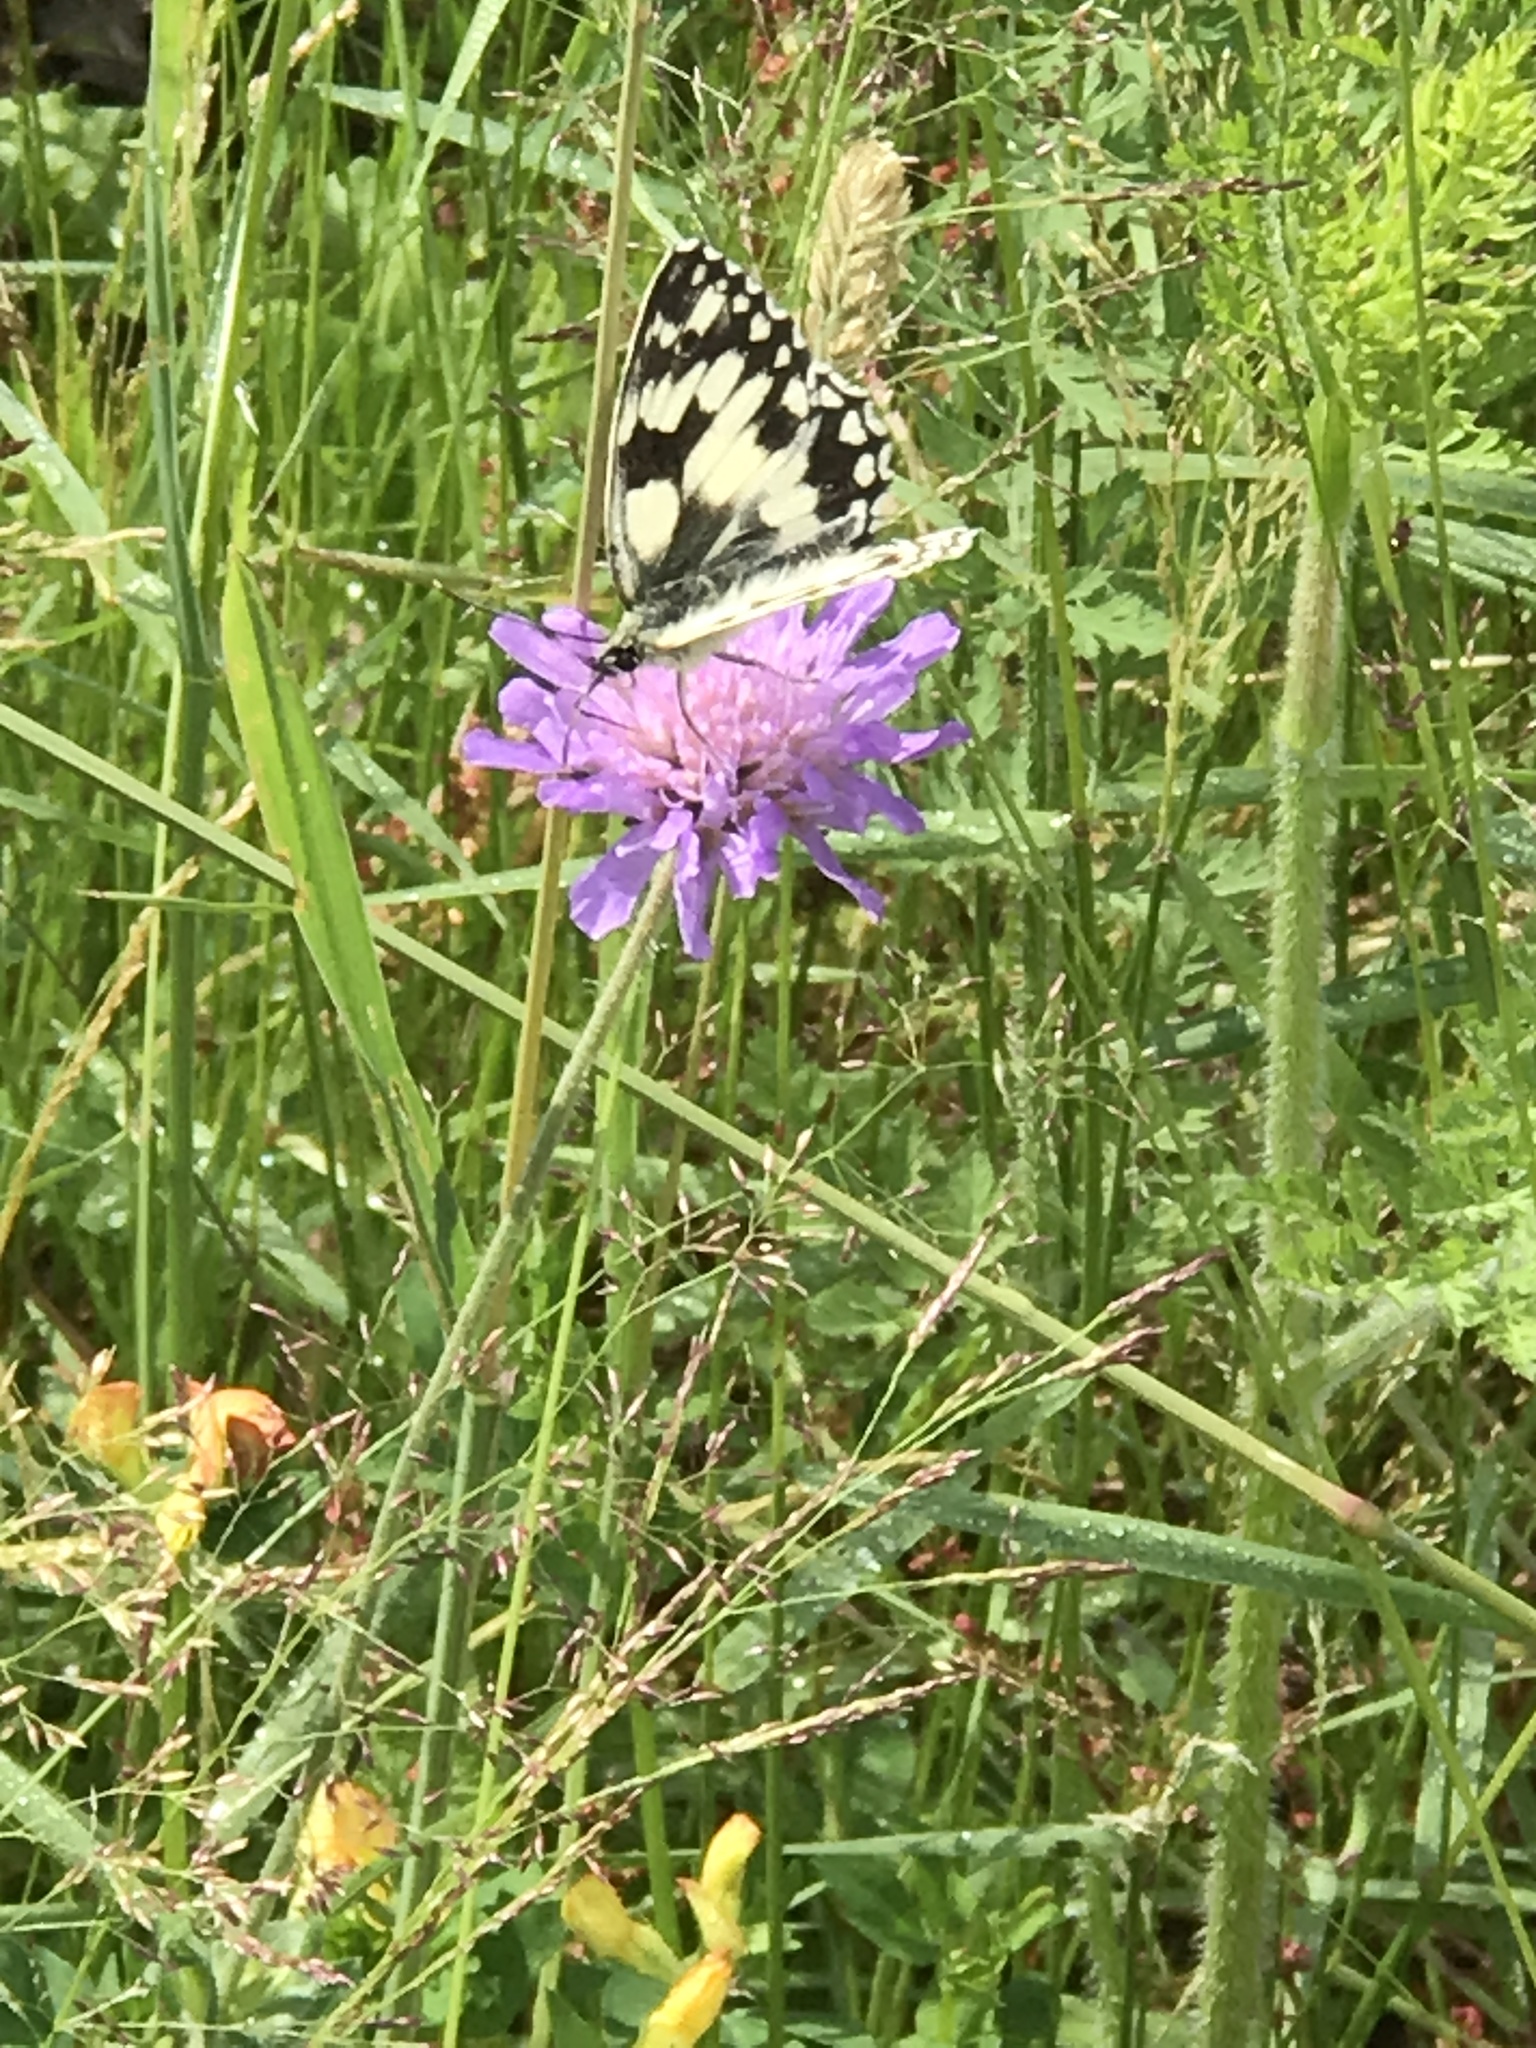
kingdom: Animalia
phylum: Arthropoda
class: Insecta
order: Lepidoptera
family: Nymphalidae
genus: Melanargia
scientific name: Melanargia galathea
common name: Marbled white
